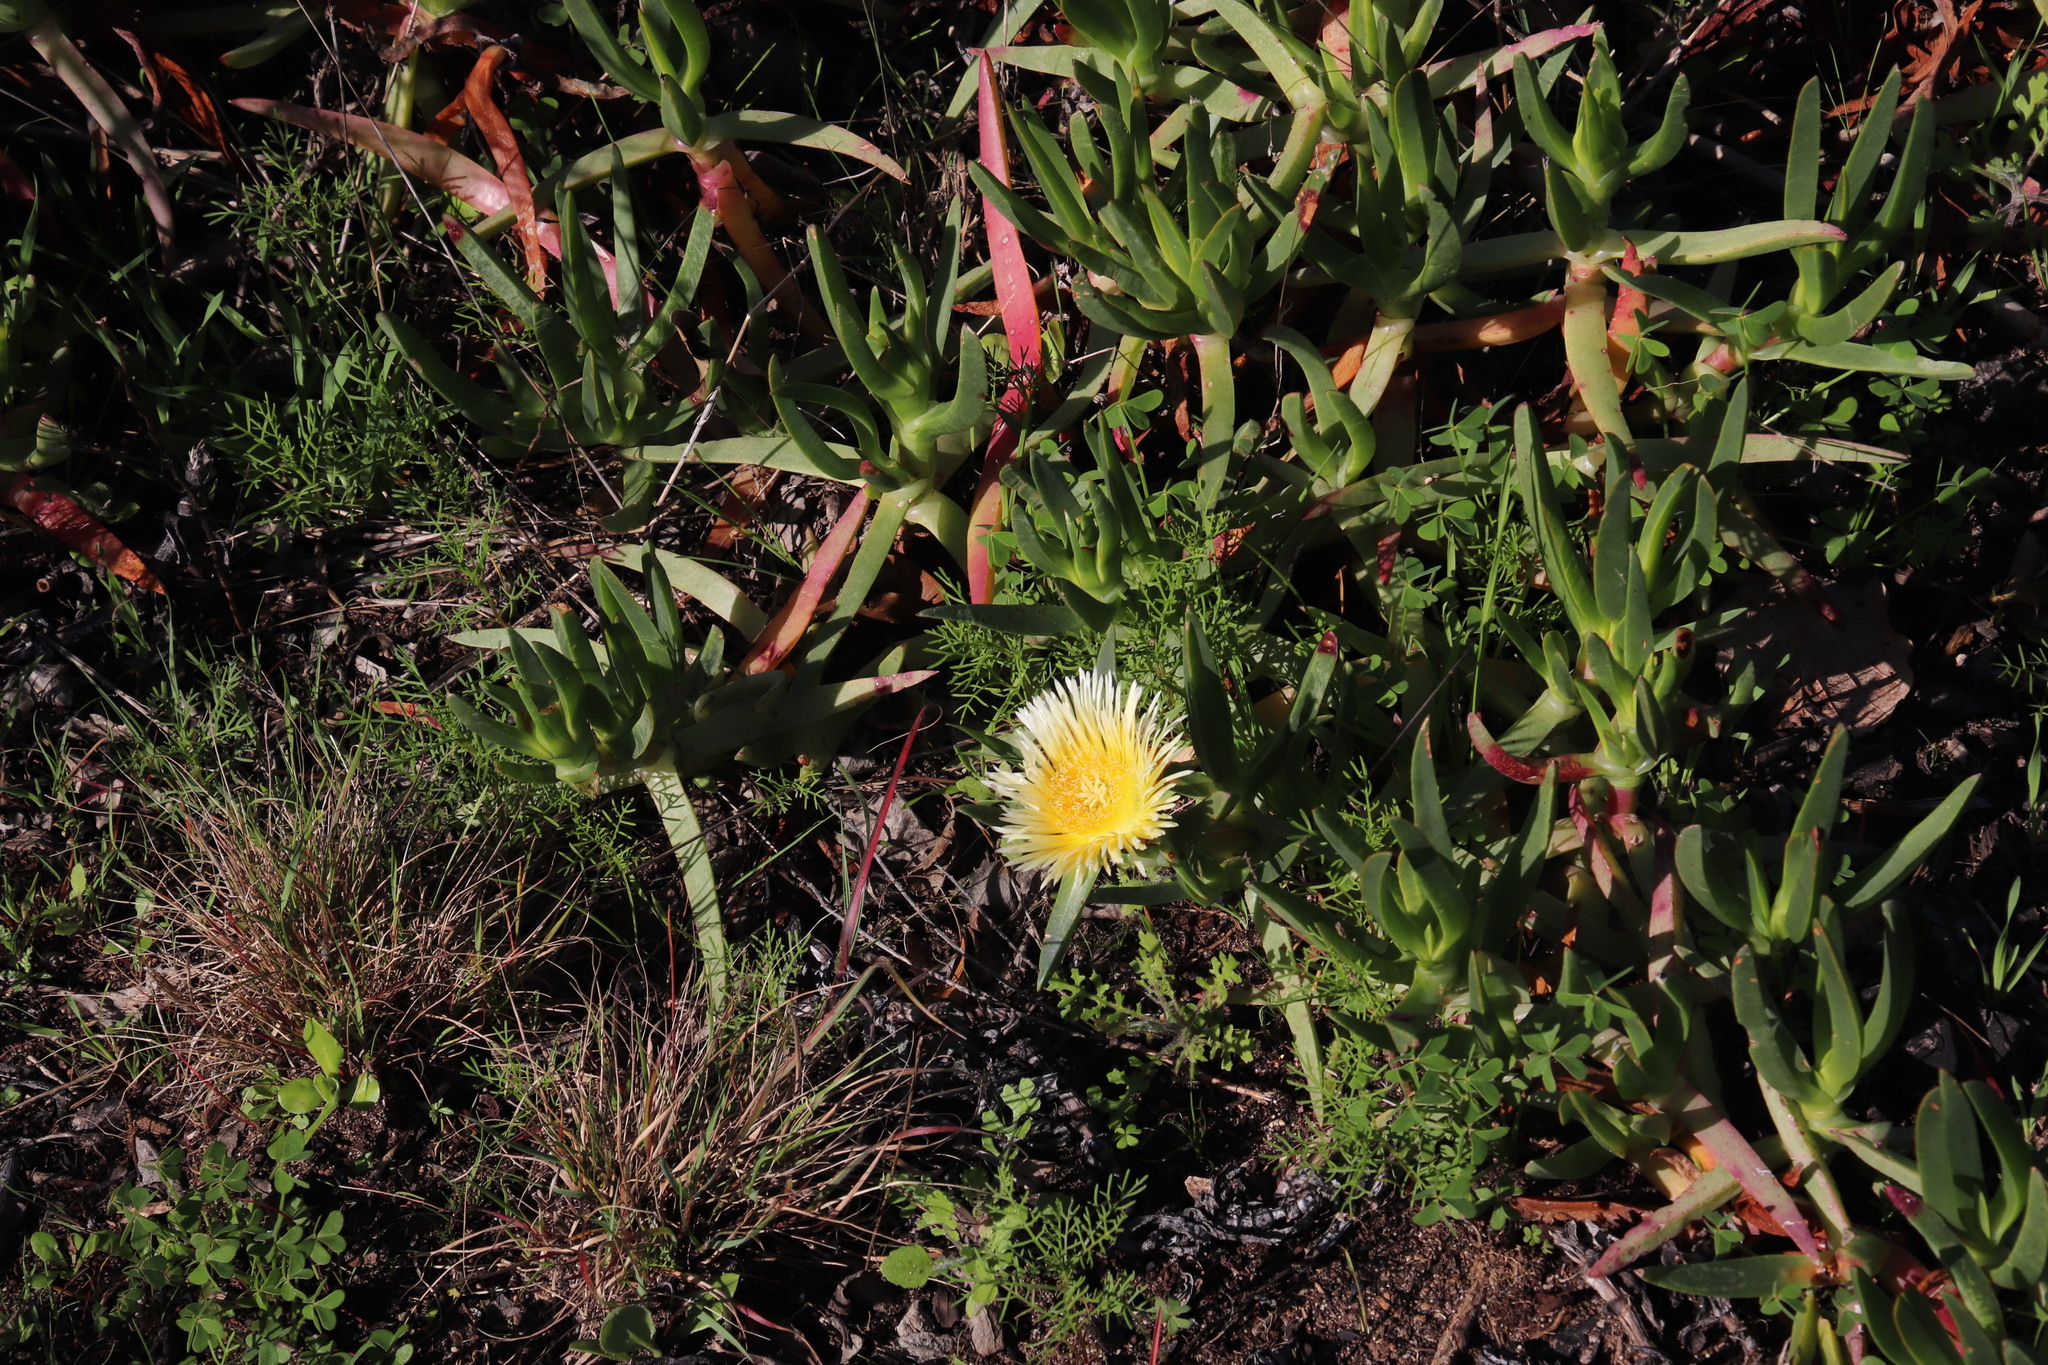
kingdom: Plantae
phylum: Tracheophyta
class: Magnoliopsida
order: Caryophyllales
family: Aizoaceae
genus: Carpobrotus
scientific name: Carpobrotus edulis
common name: Hottentot-fig
